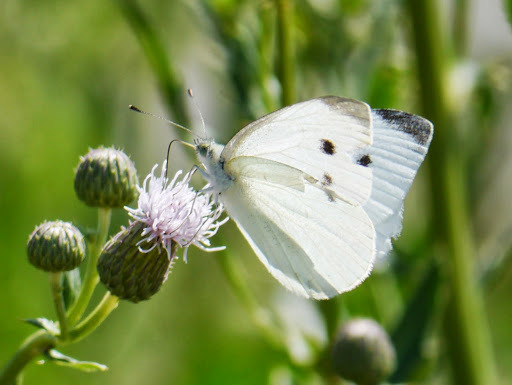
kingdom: Animalia
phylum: Arthropoda
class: Insecta
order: Lepidoptera
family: Pieridae
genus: Pieris
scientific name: Pieris rapae
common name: Small white
